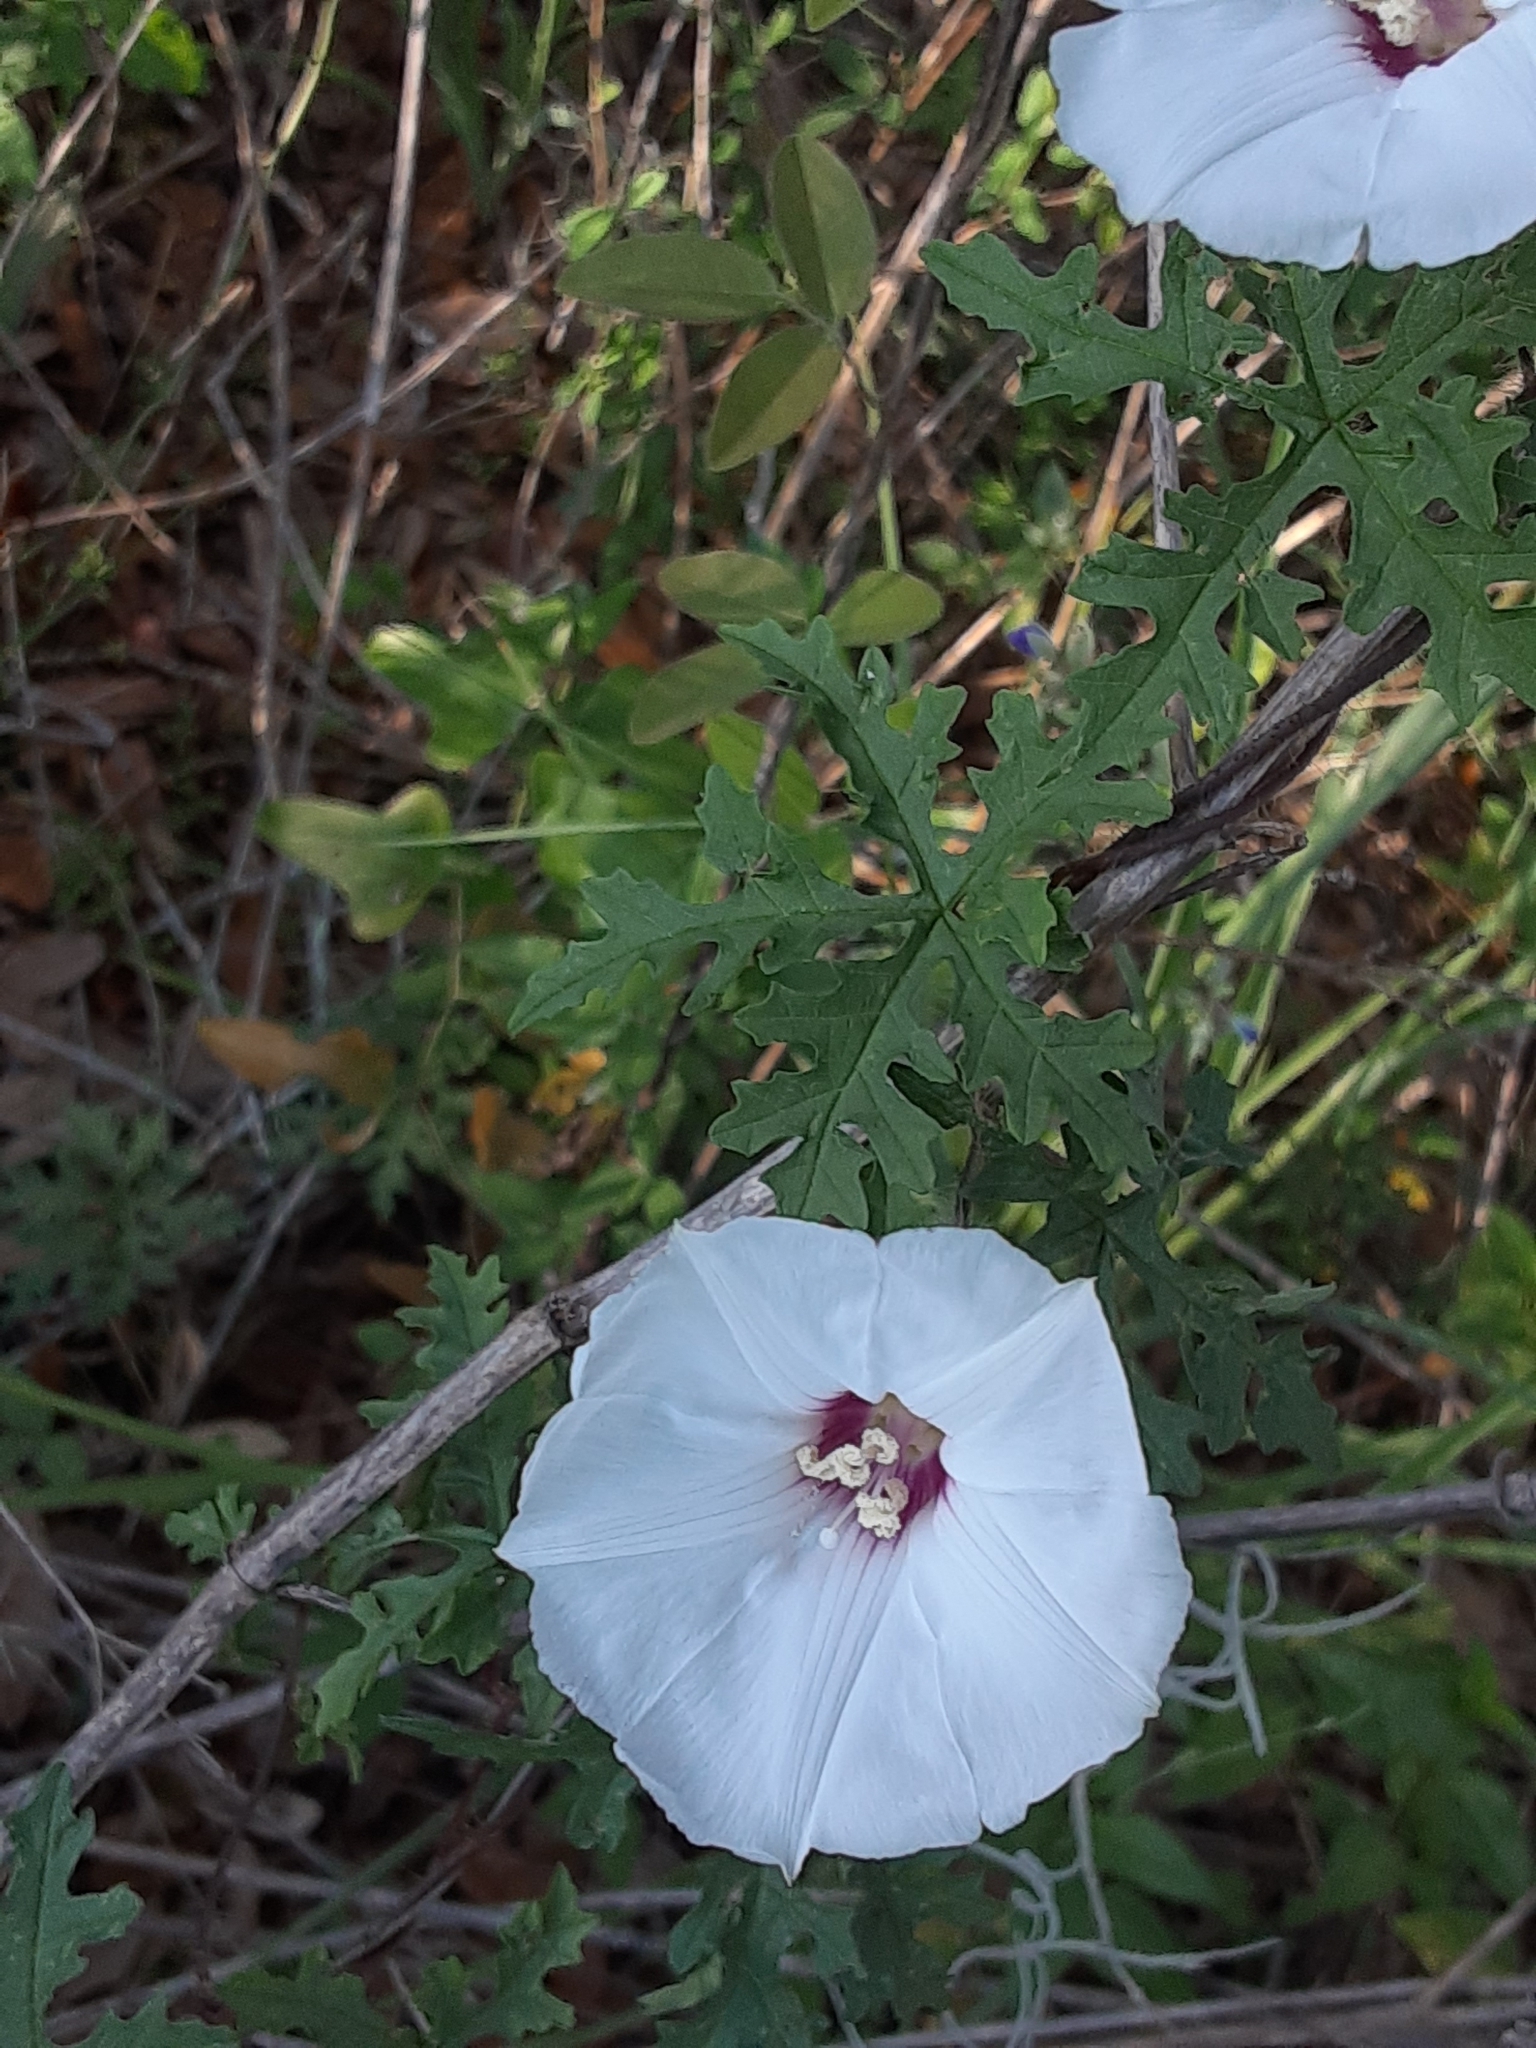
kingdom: Plantae
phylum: Tracheophyta
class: Magnoliopsida
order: Solanales
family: Convolvulaceae
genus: Distimake
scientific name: Distimake dissectus
